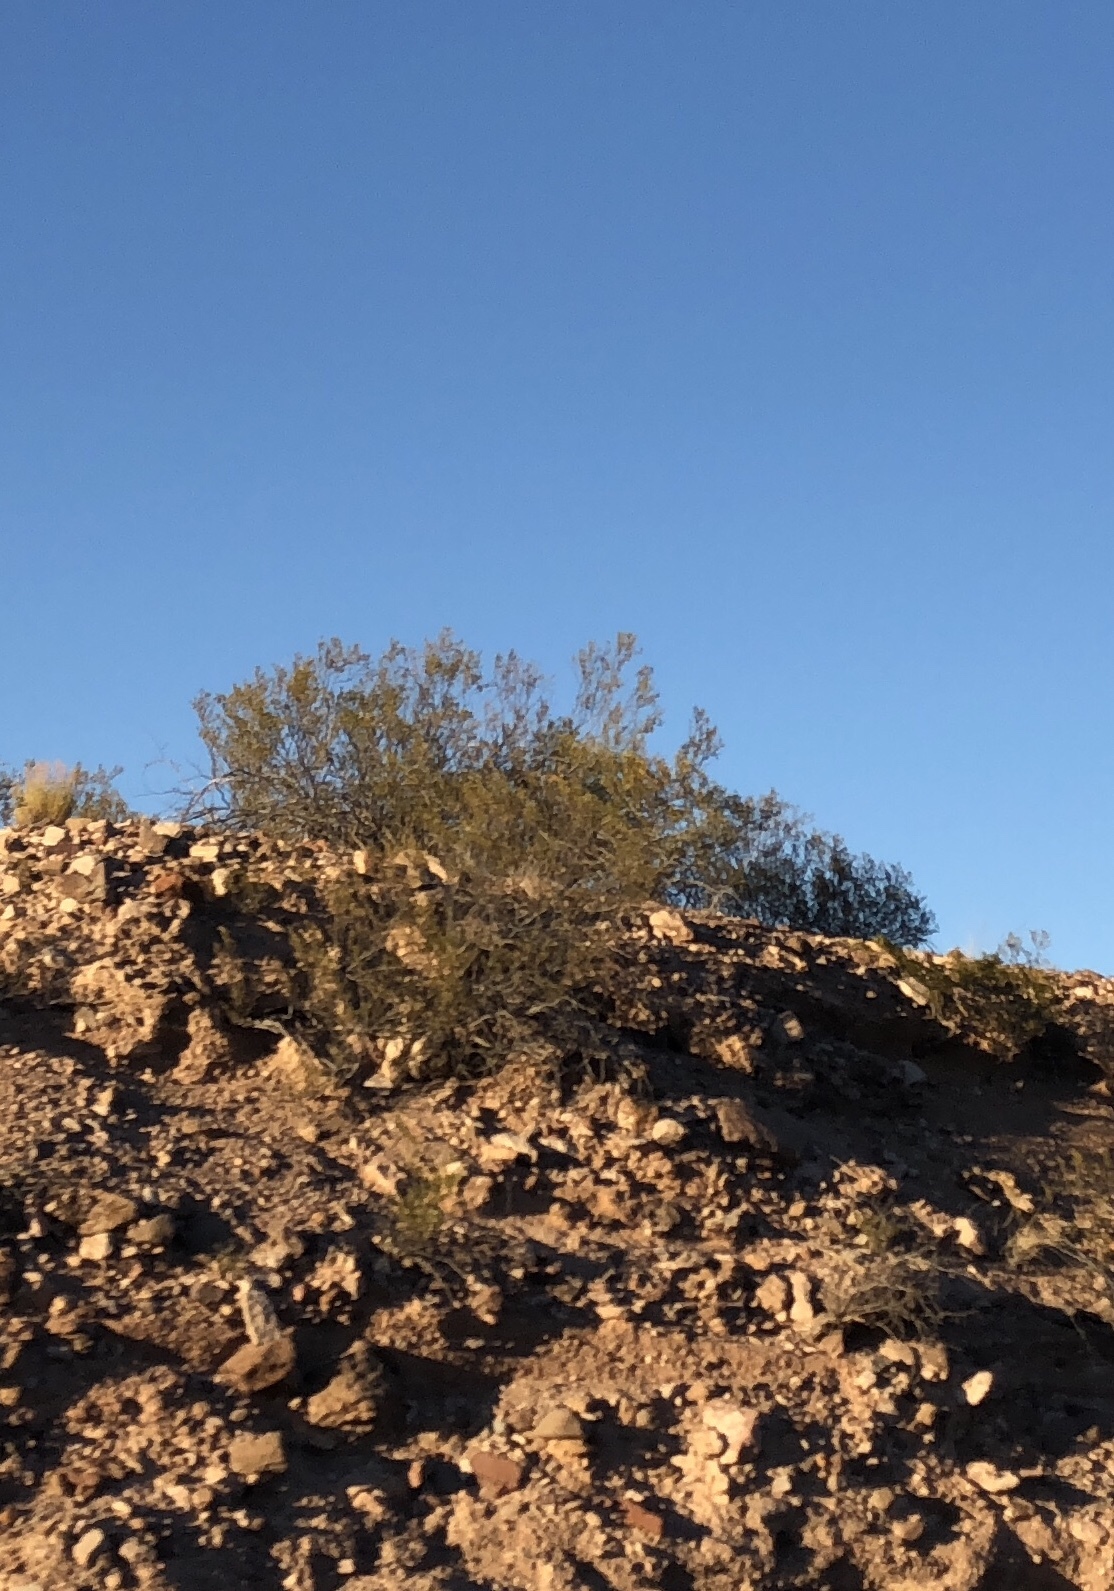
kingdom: Plantae
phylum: Tracheophyta
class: Magnoliopsida
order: Zygophyllales
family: Zygophyllaceae
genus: Larrea
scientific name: Larrea tridentata
